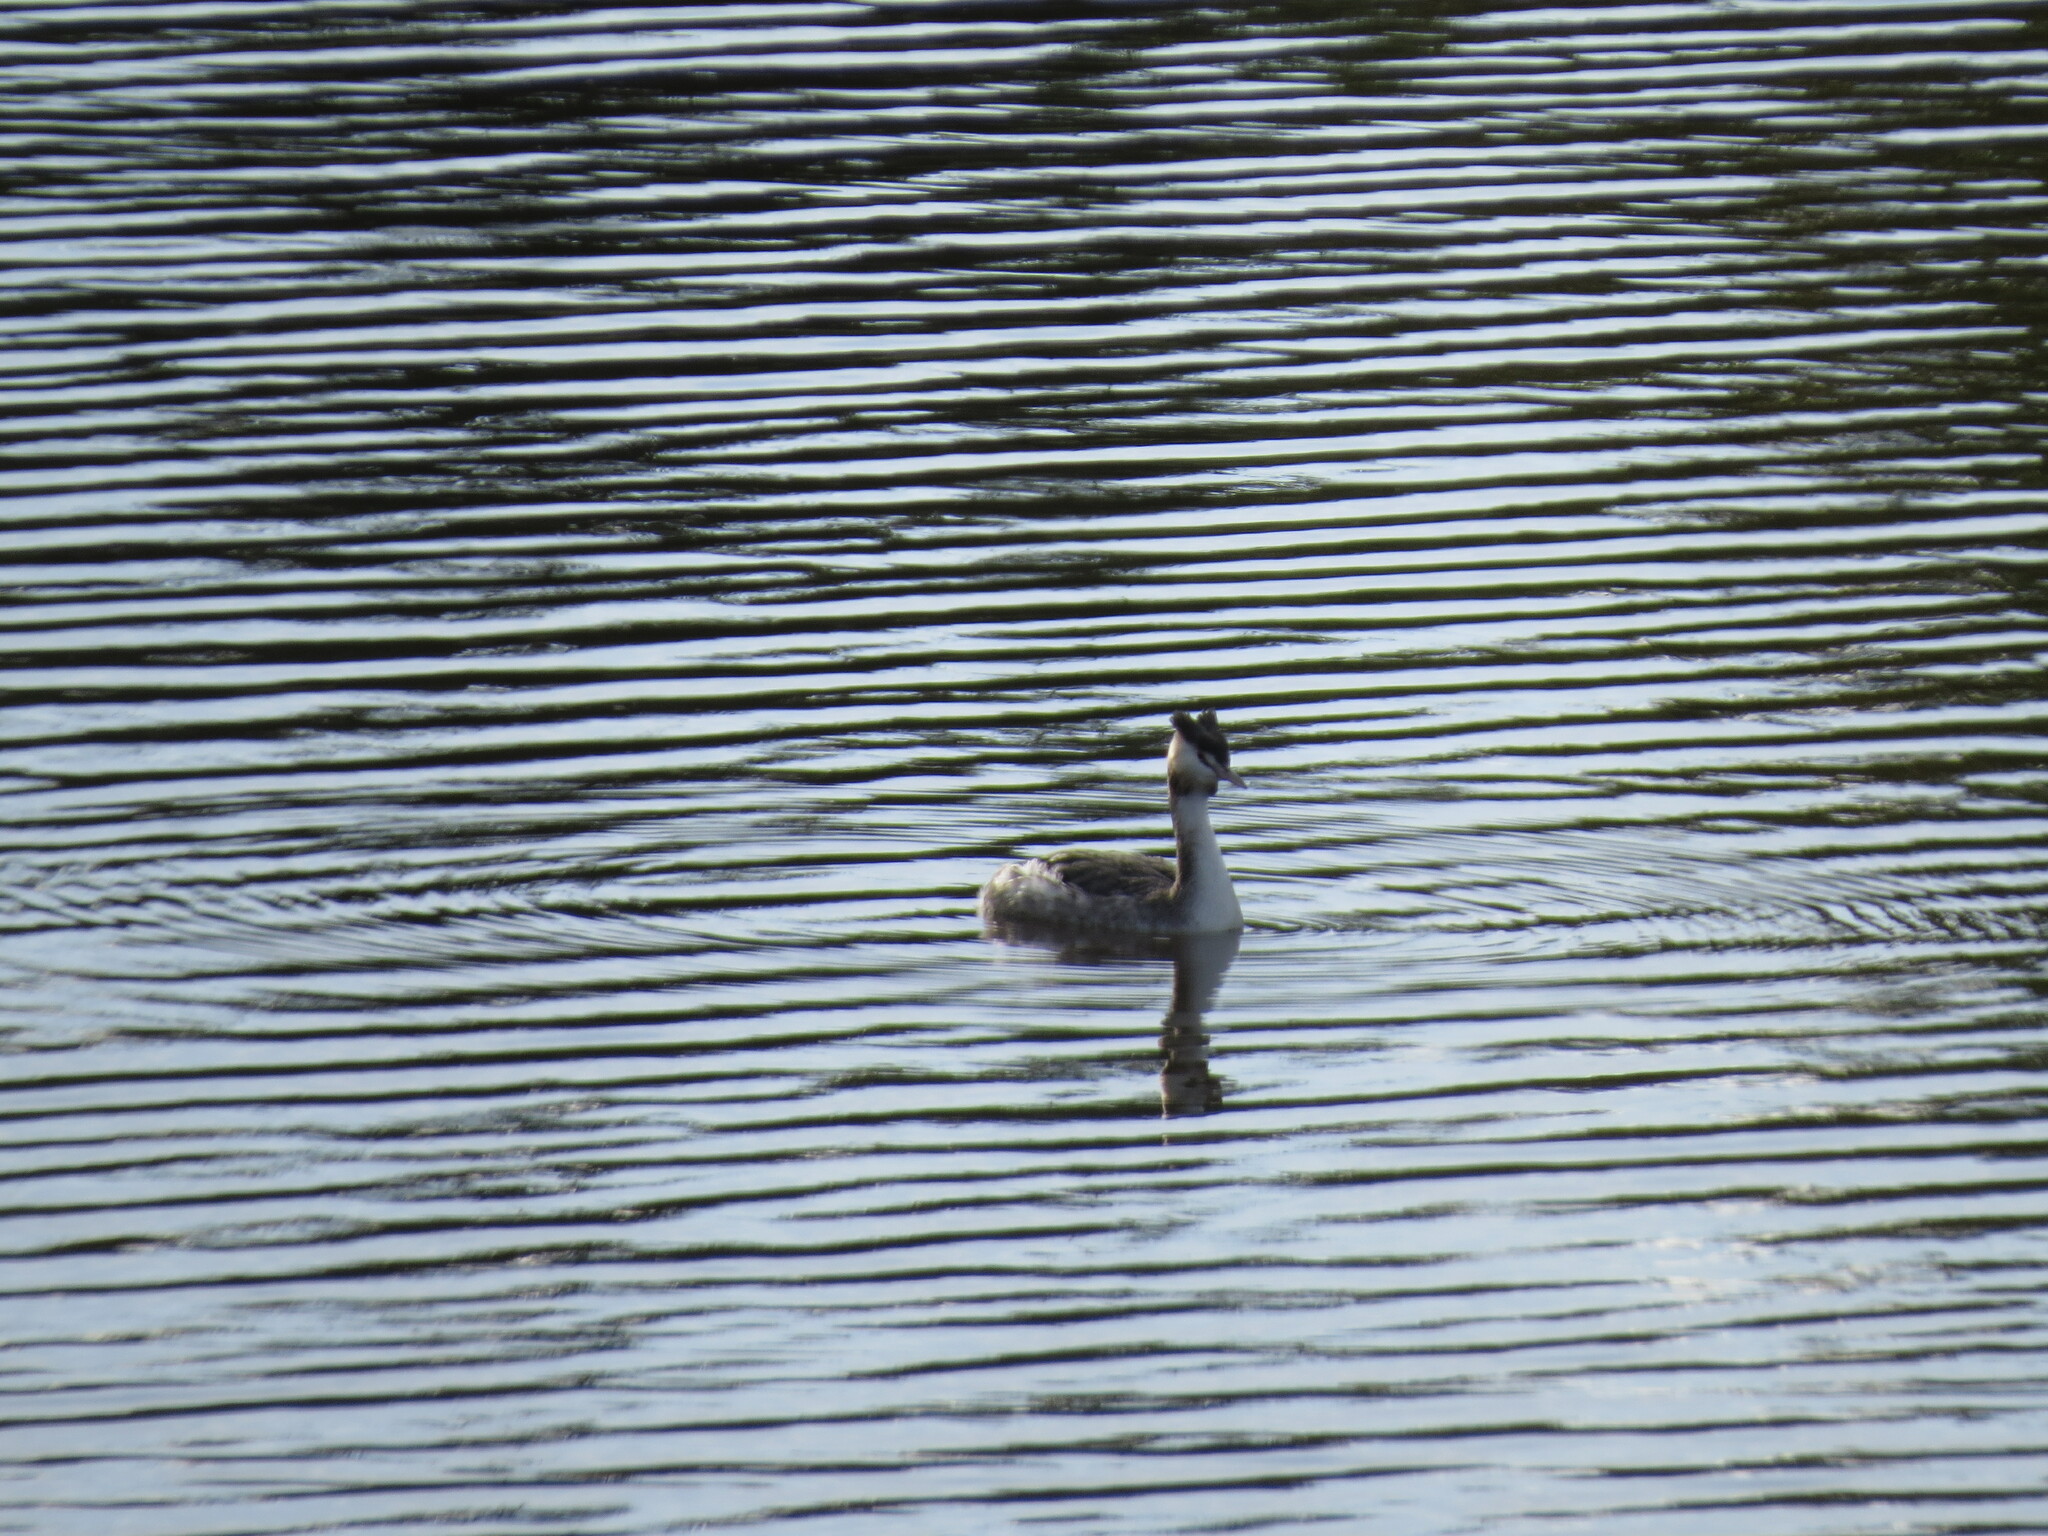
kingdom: Animalia
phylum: Chordata
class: Aves
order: Podicipediformes
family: Podicipedidae
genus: Podiceps
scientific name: Podiceps cristatus
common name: Great crested grebe
